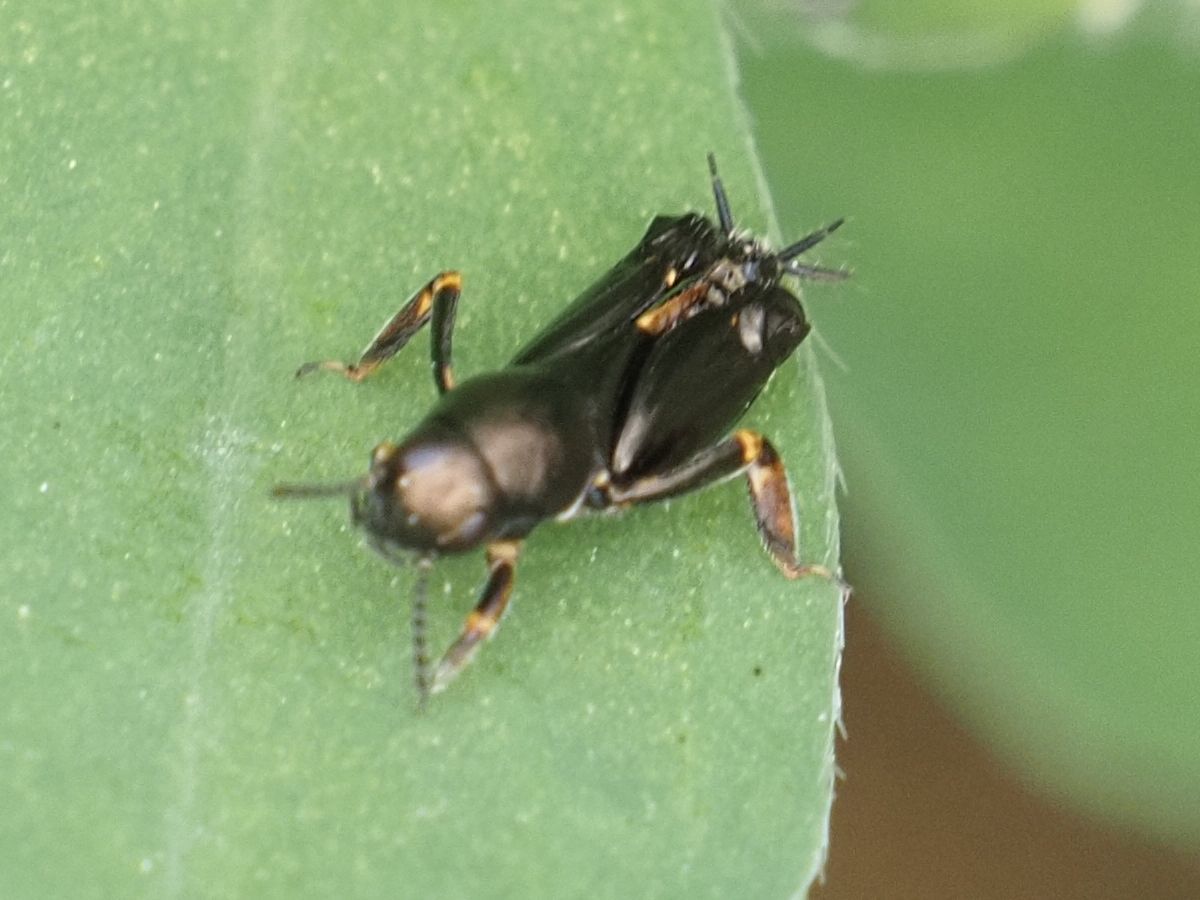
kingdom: Animalia
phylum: Arthropoda
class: Insecta
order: Orthoptera
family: Tridactylidae
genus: Xya
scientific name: Xya pfaendleri
